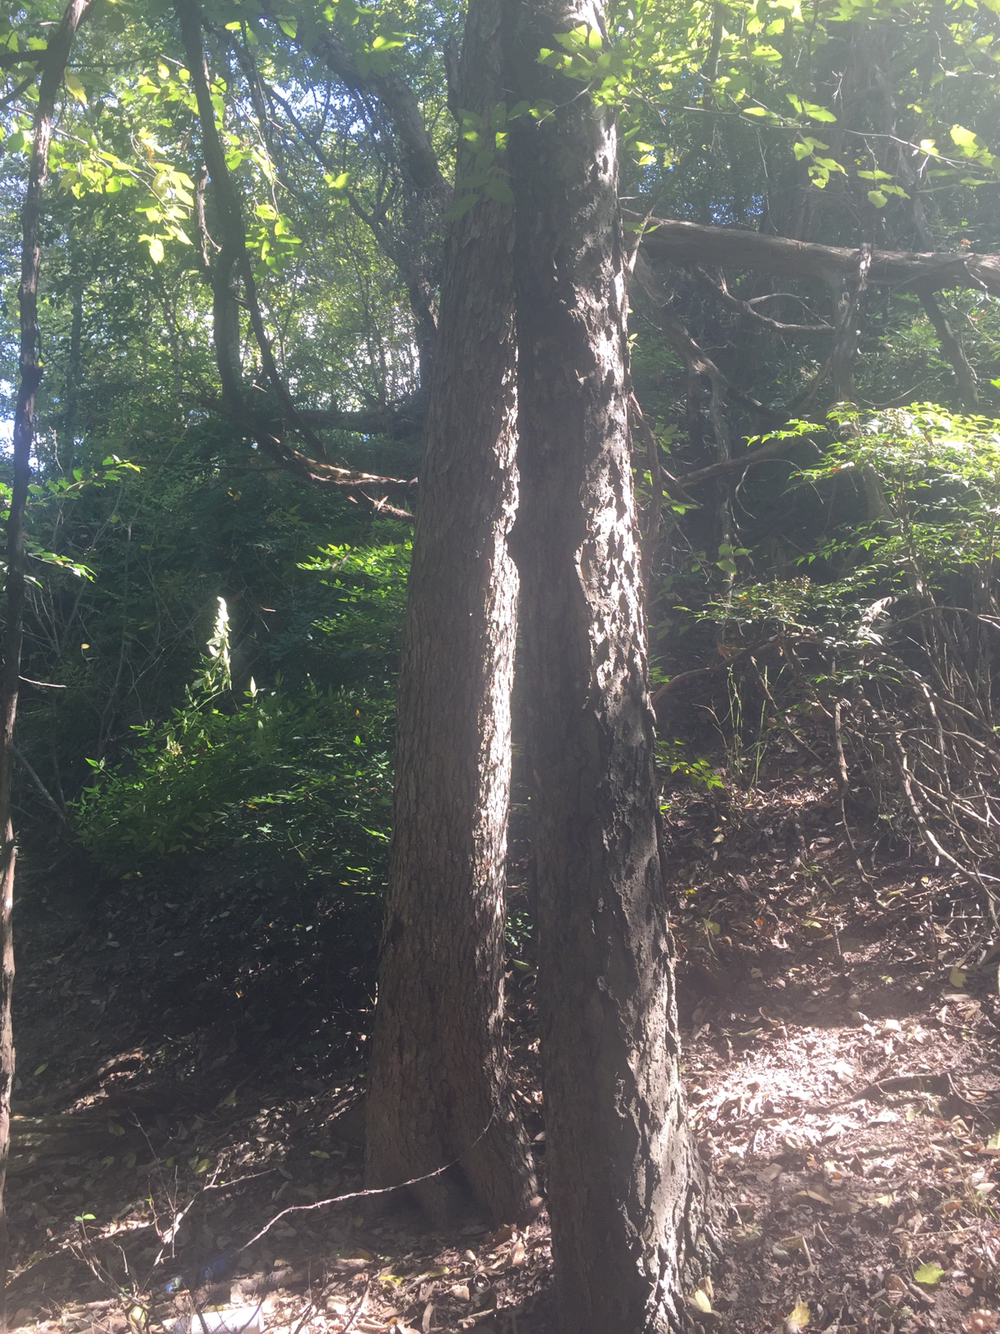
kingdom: Plantae
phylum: Tracheophyta
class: Magnoliopsida
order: Rosales
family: Ulmaceae
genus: Ulmus
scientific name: Ulmus crassifolia
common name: Basket elm
